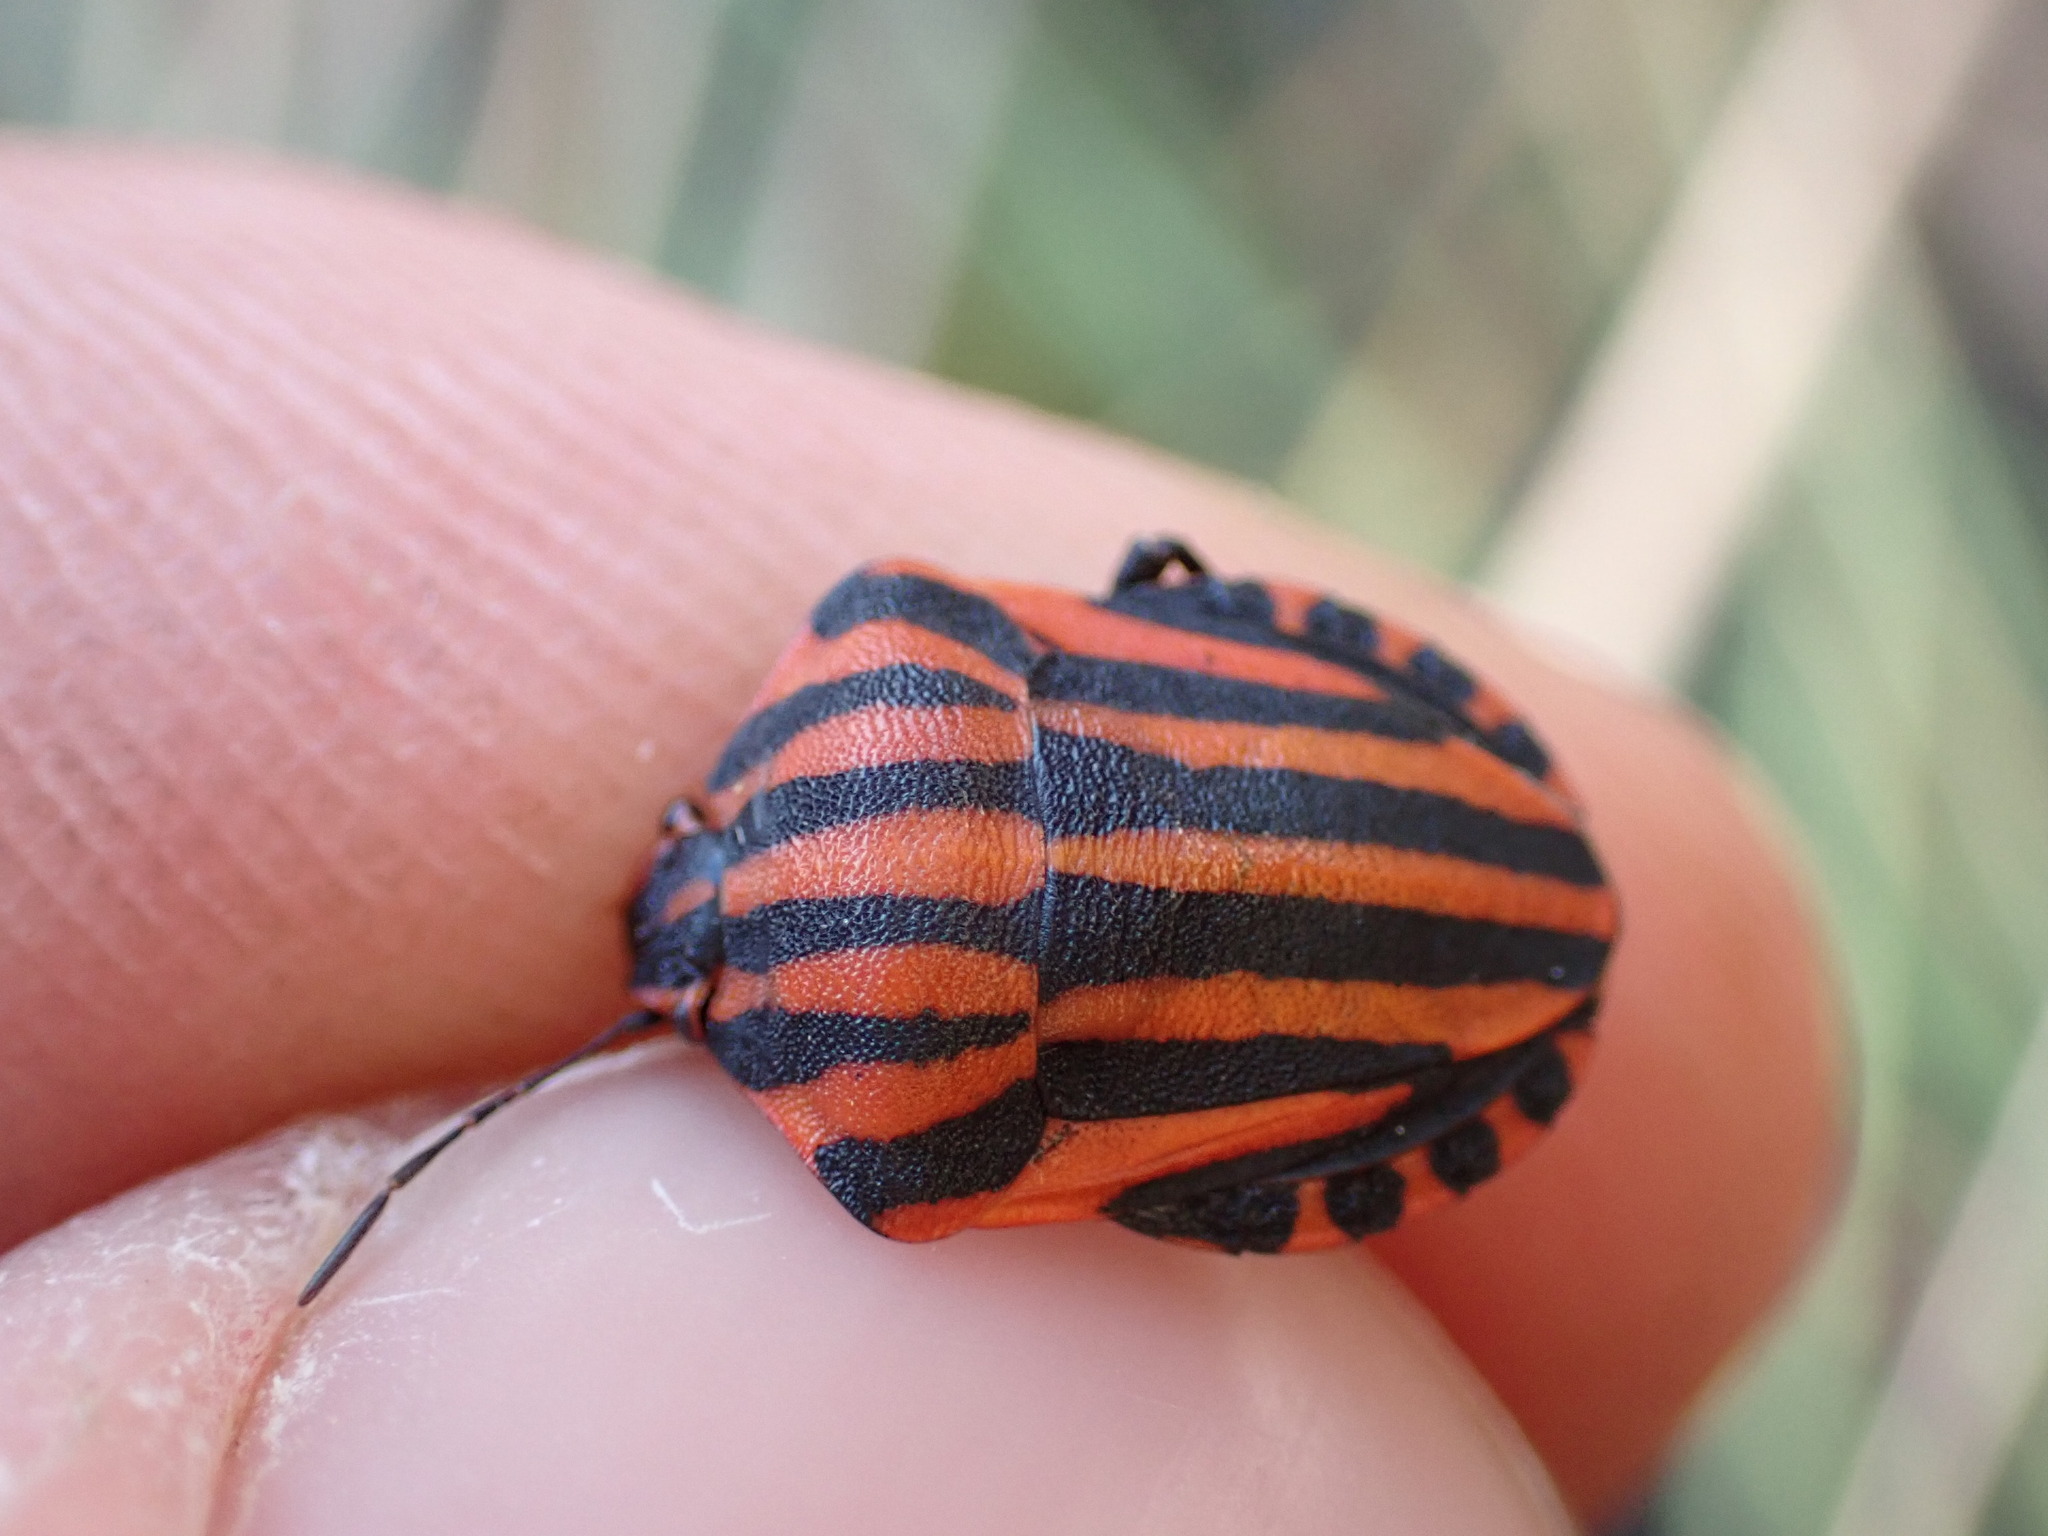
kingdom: Animalia
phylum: Arthropoda
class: Insecta
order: Hemiptera
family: Pentatomidae
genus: Graphosoma
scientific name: Graphosoma italicum
